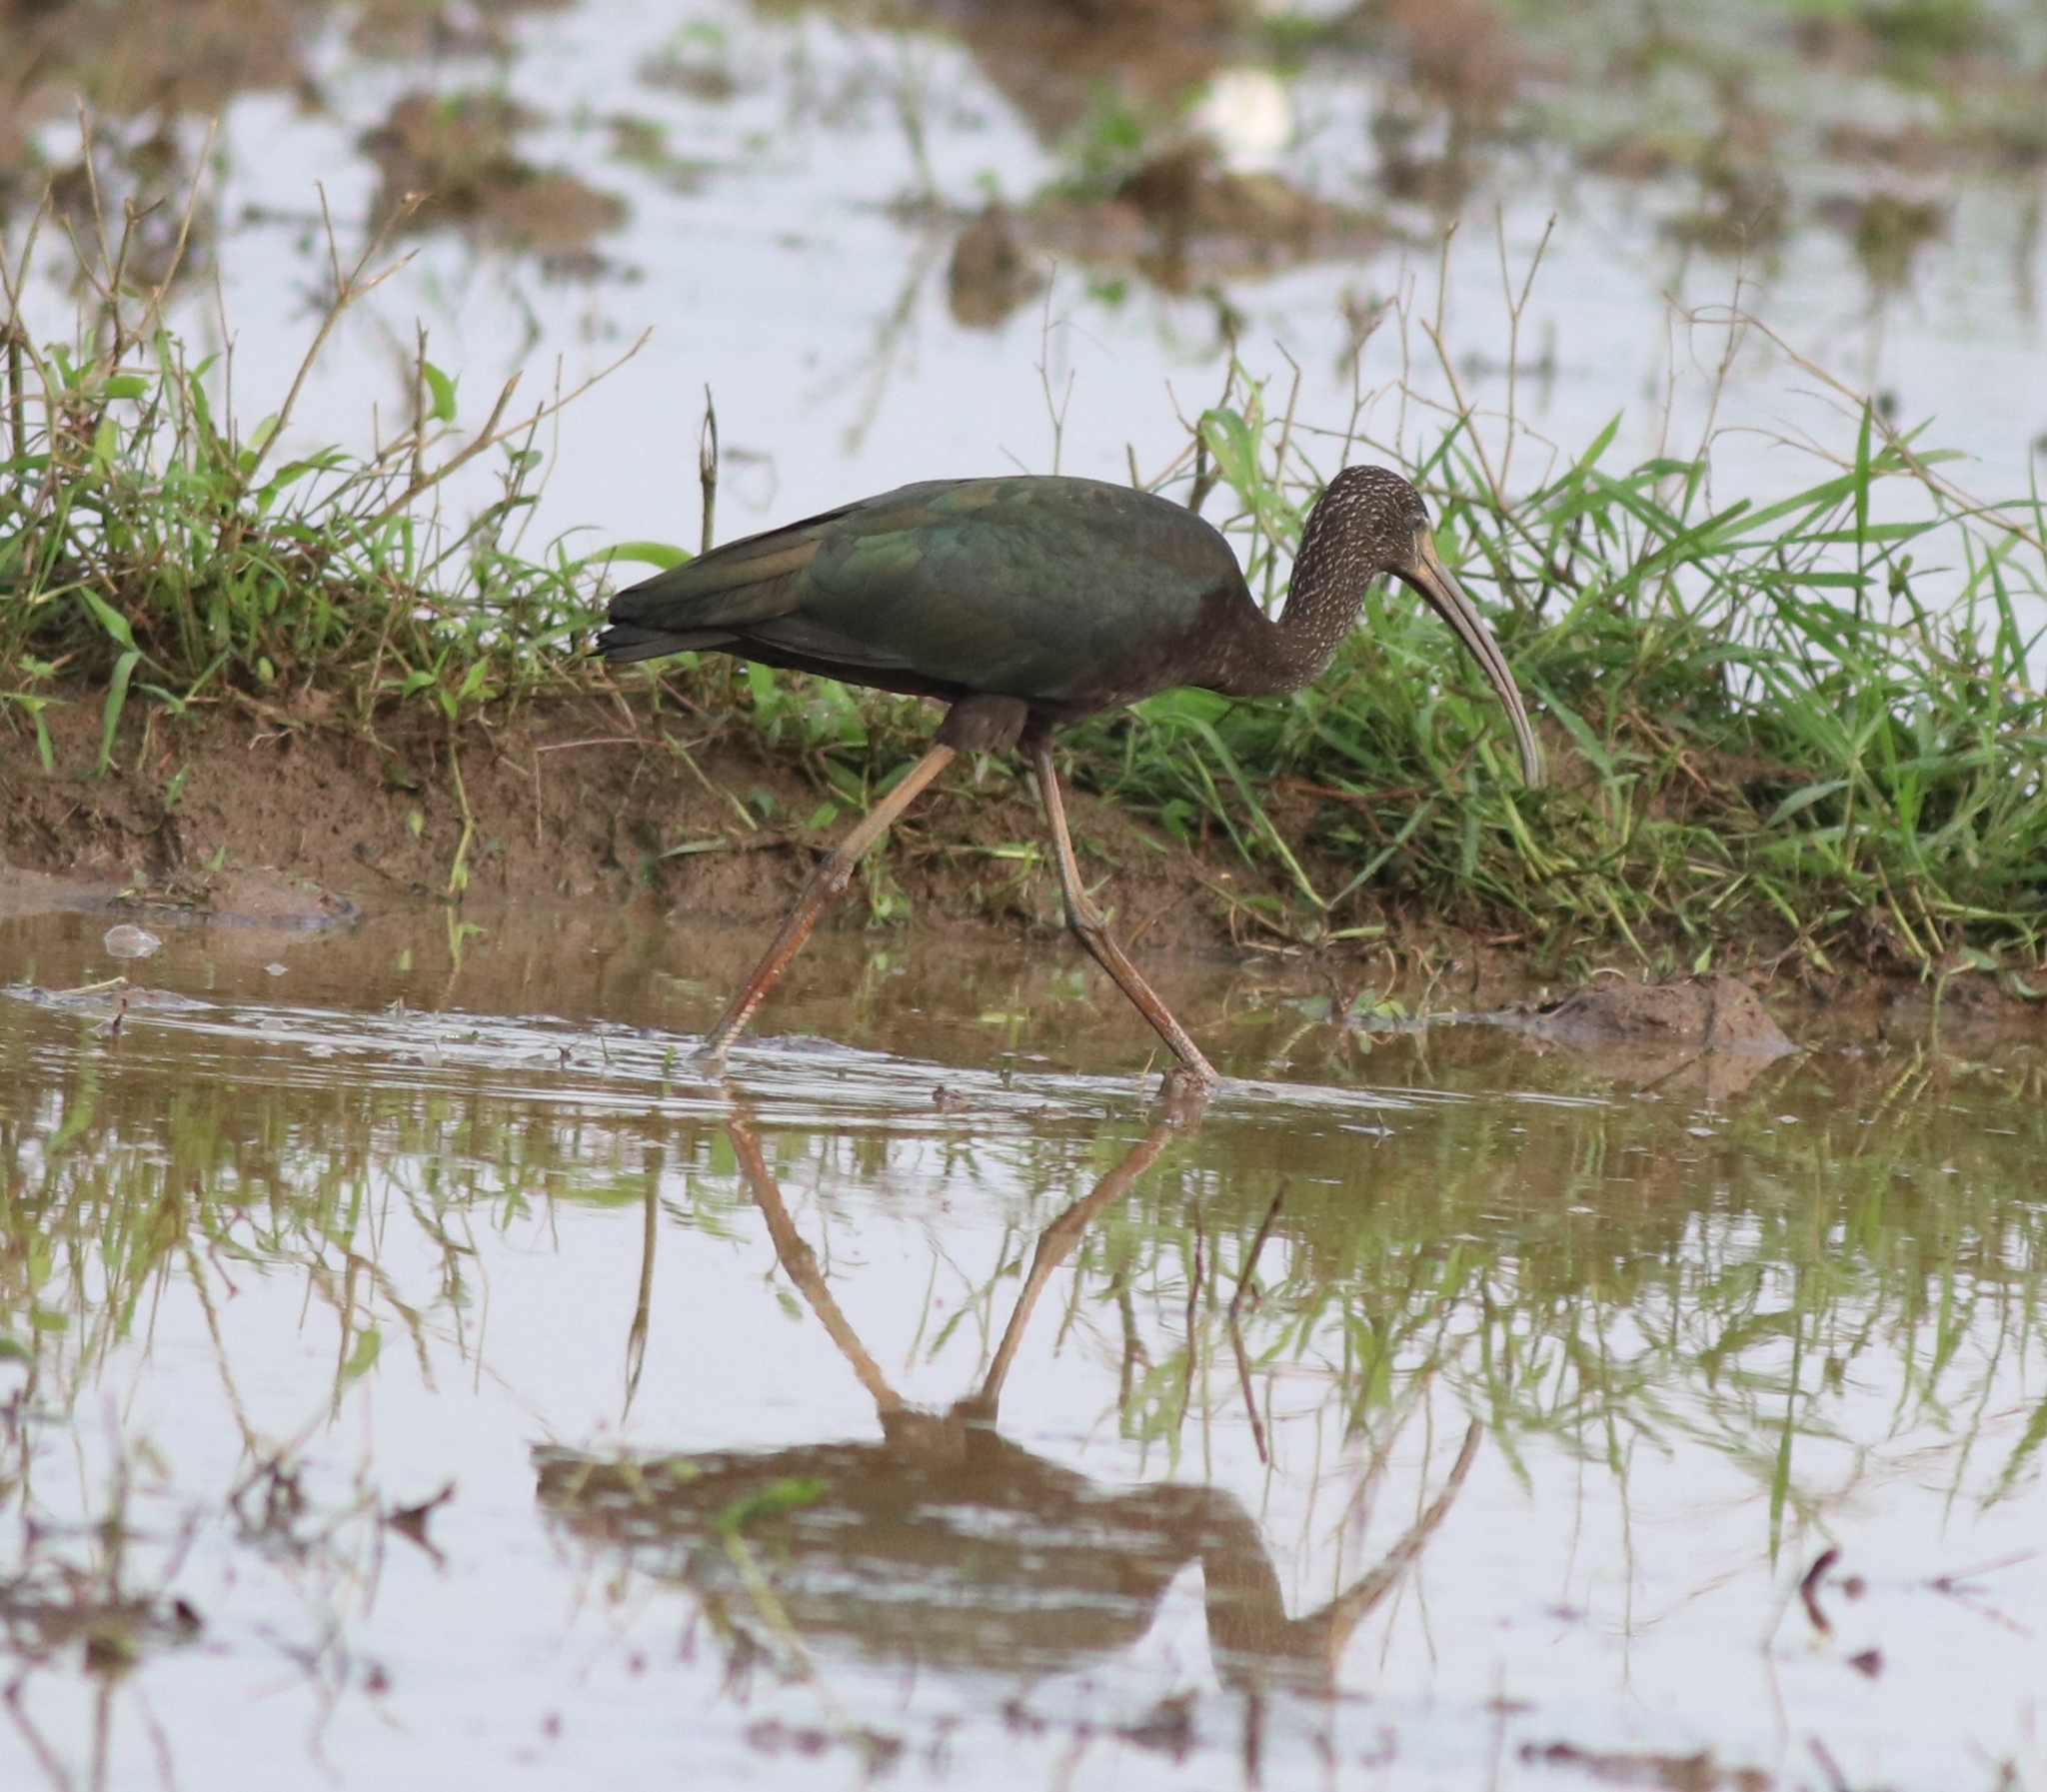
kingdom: Animalia
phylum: Chordata
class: Aves
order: Pelecaniformes
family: Threskiornithidae
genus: Plegadis
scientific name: Plegadis falcinellus
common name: Glossy ibis
